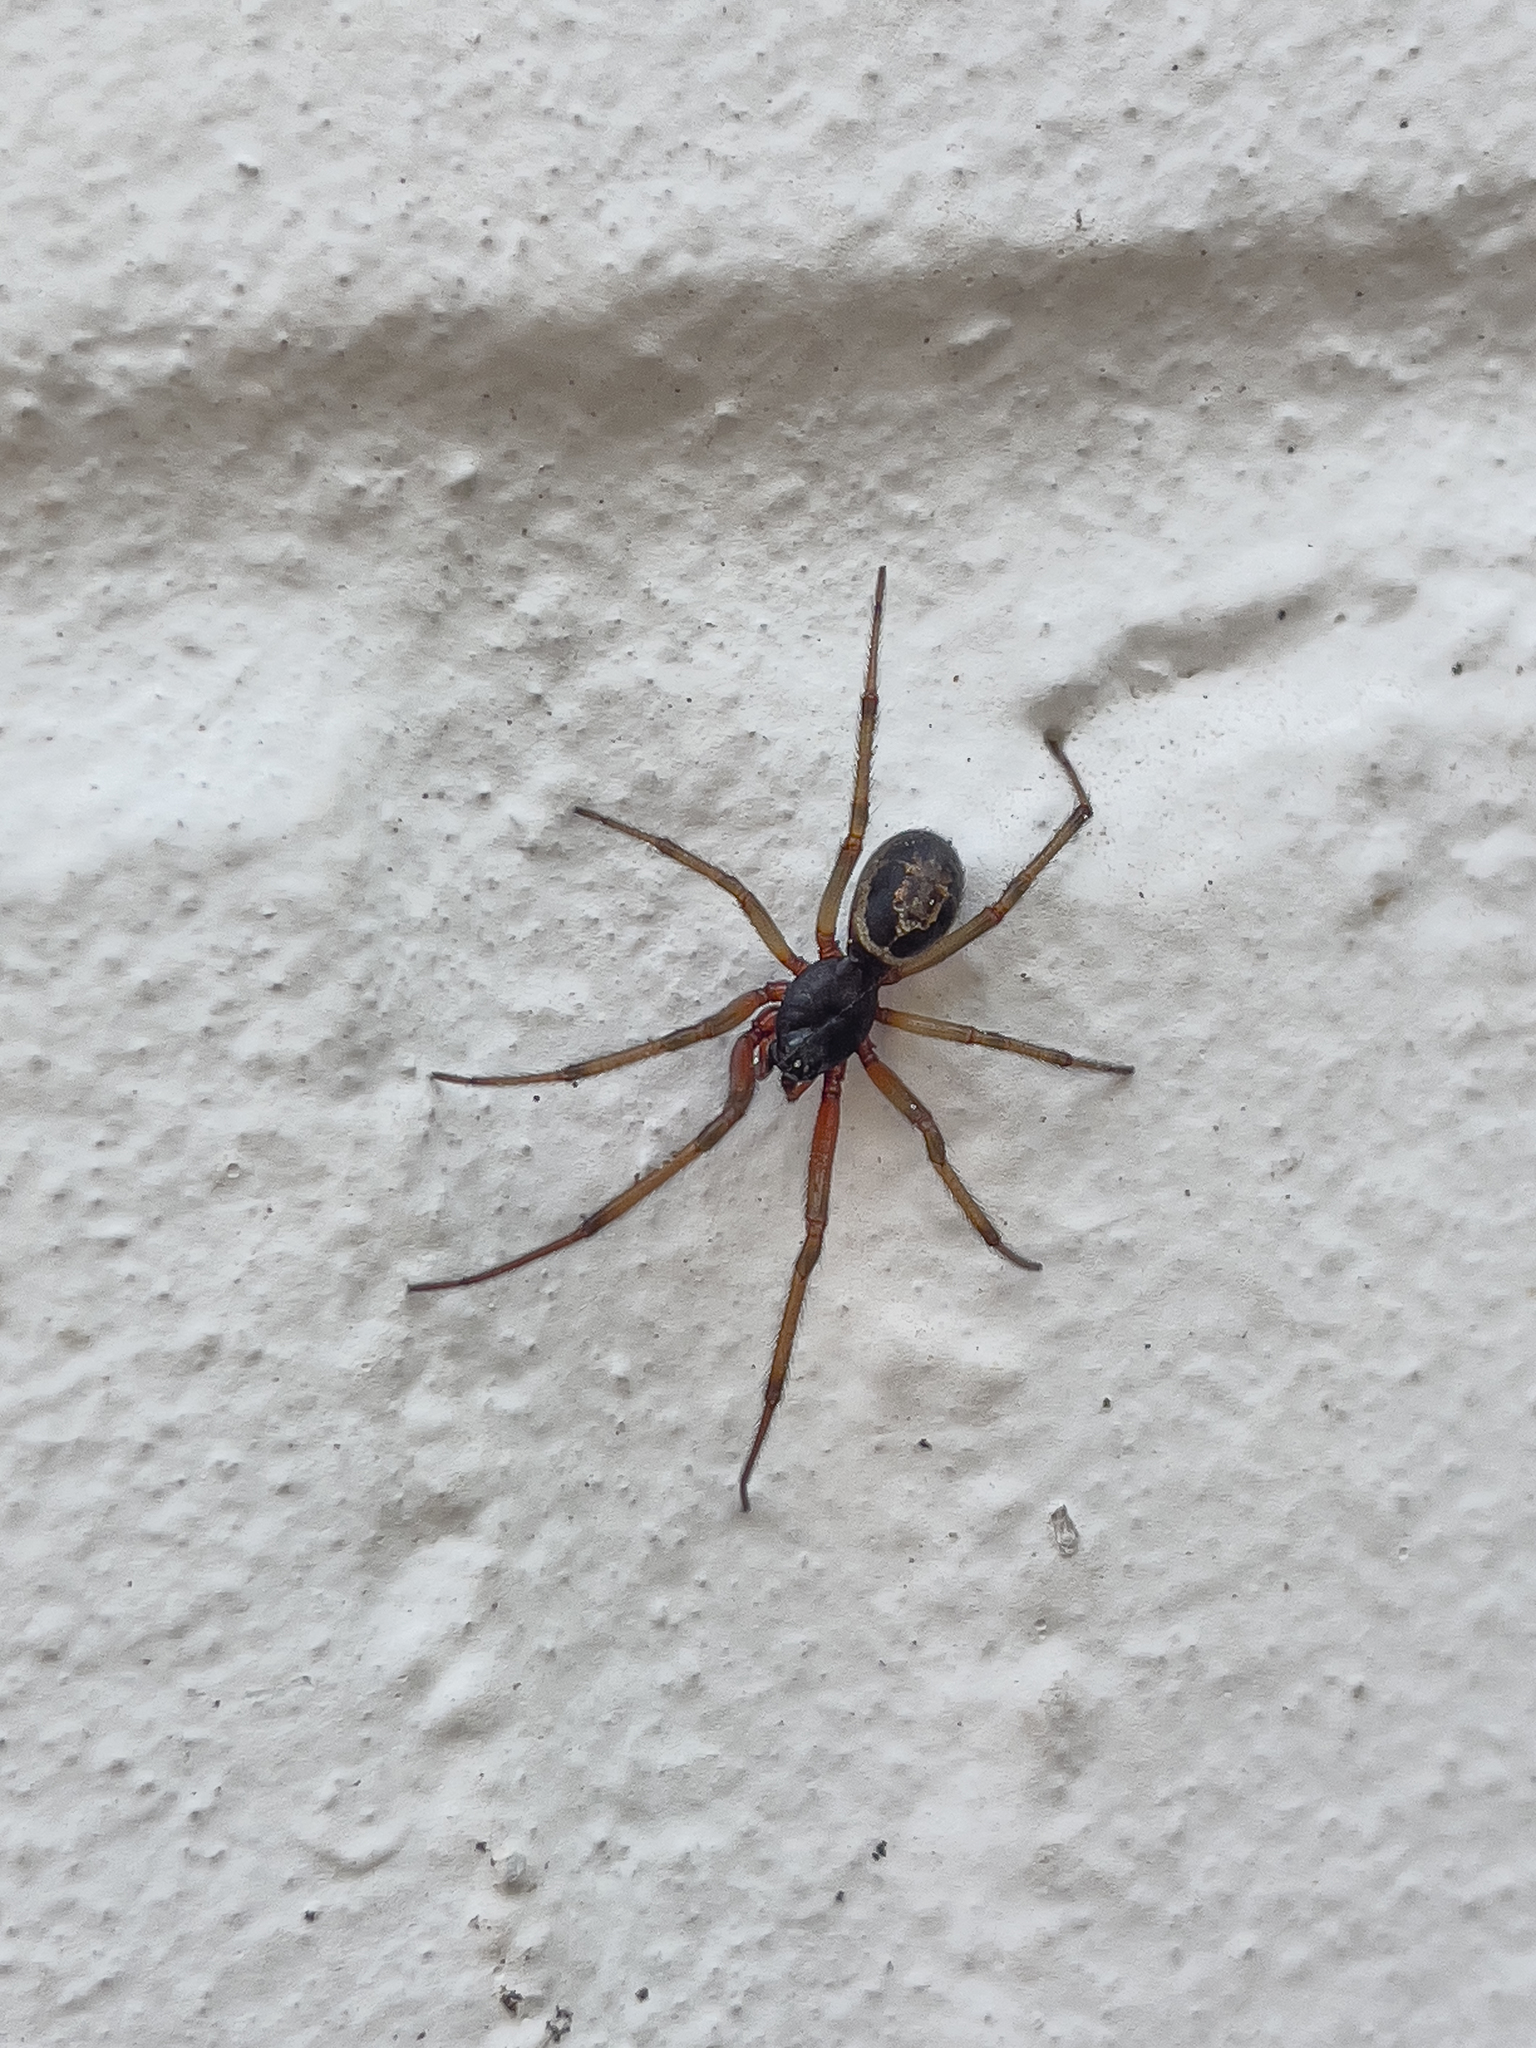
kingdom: Animalia
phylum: Arthropoda
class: Arachnida
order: Araneae
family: Theridiidae
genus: Steatoda
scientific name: Steatoda nobilis
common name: Cobweb weaver
